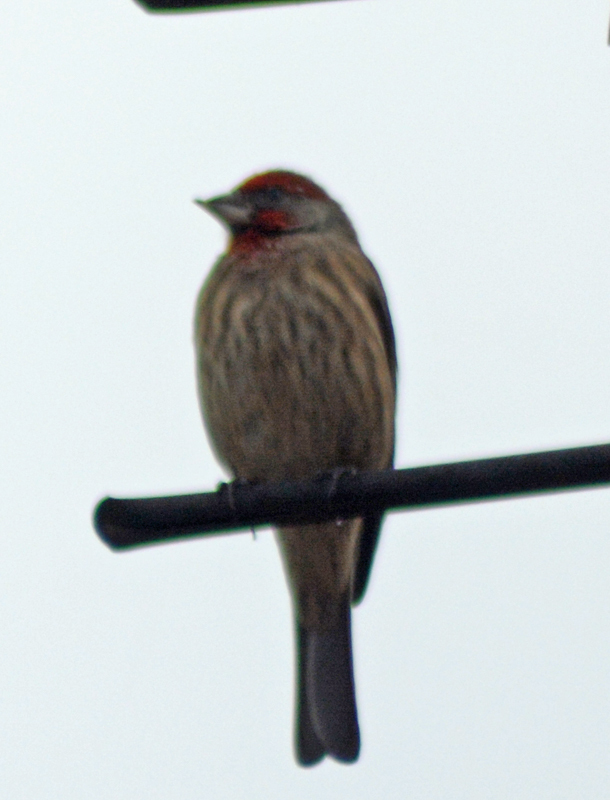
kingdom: Animalia
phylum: Chordata
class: Aves
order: Passeriformes
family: Fringillidae
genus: Haemorhous
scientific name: Haemorhous mexicanus
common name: House finch
